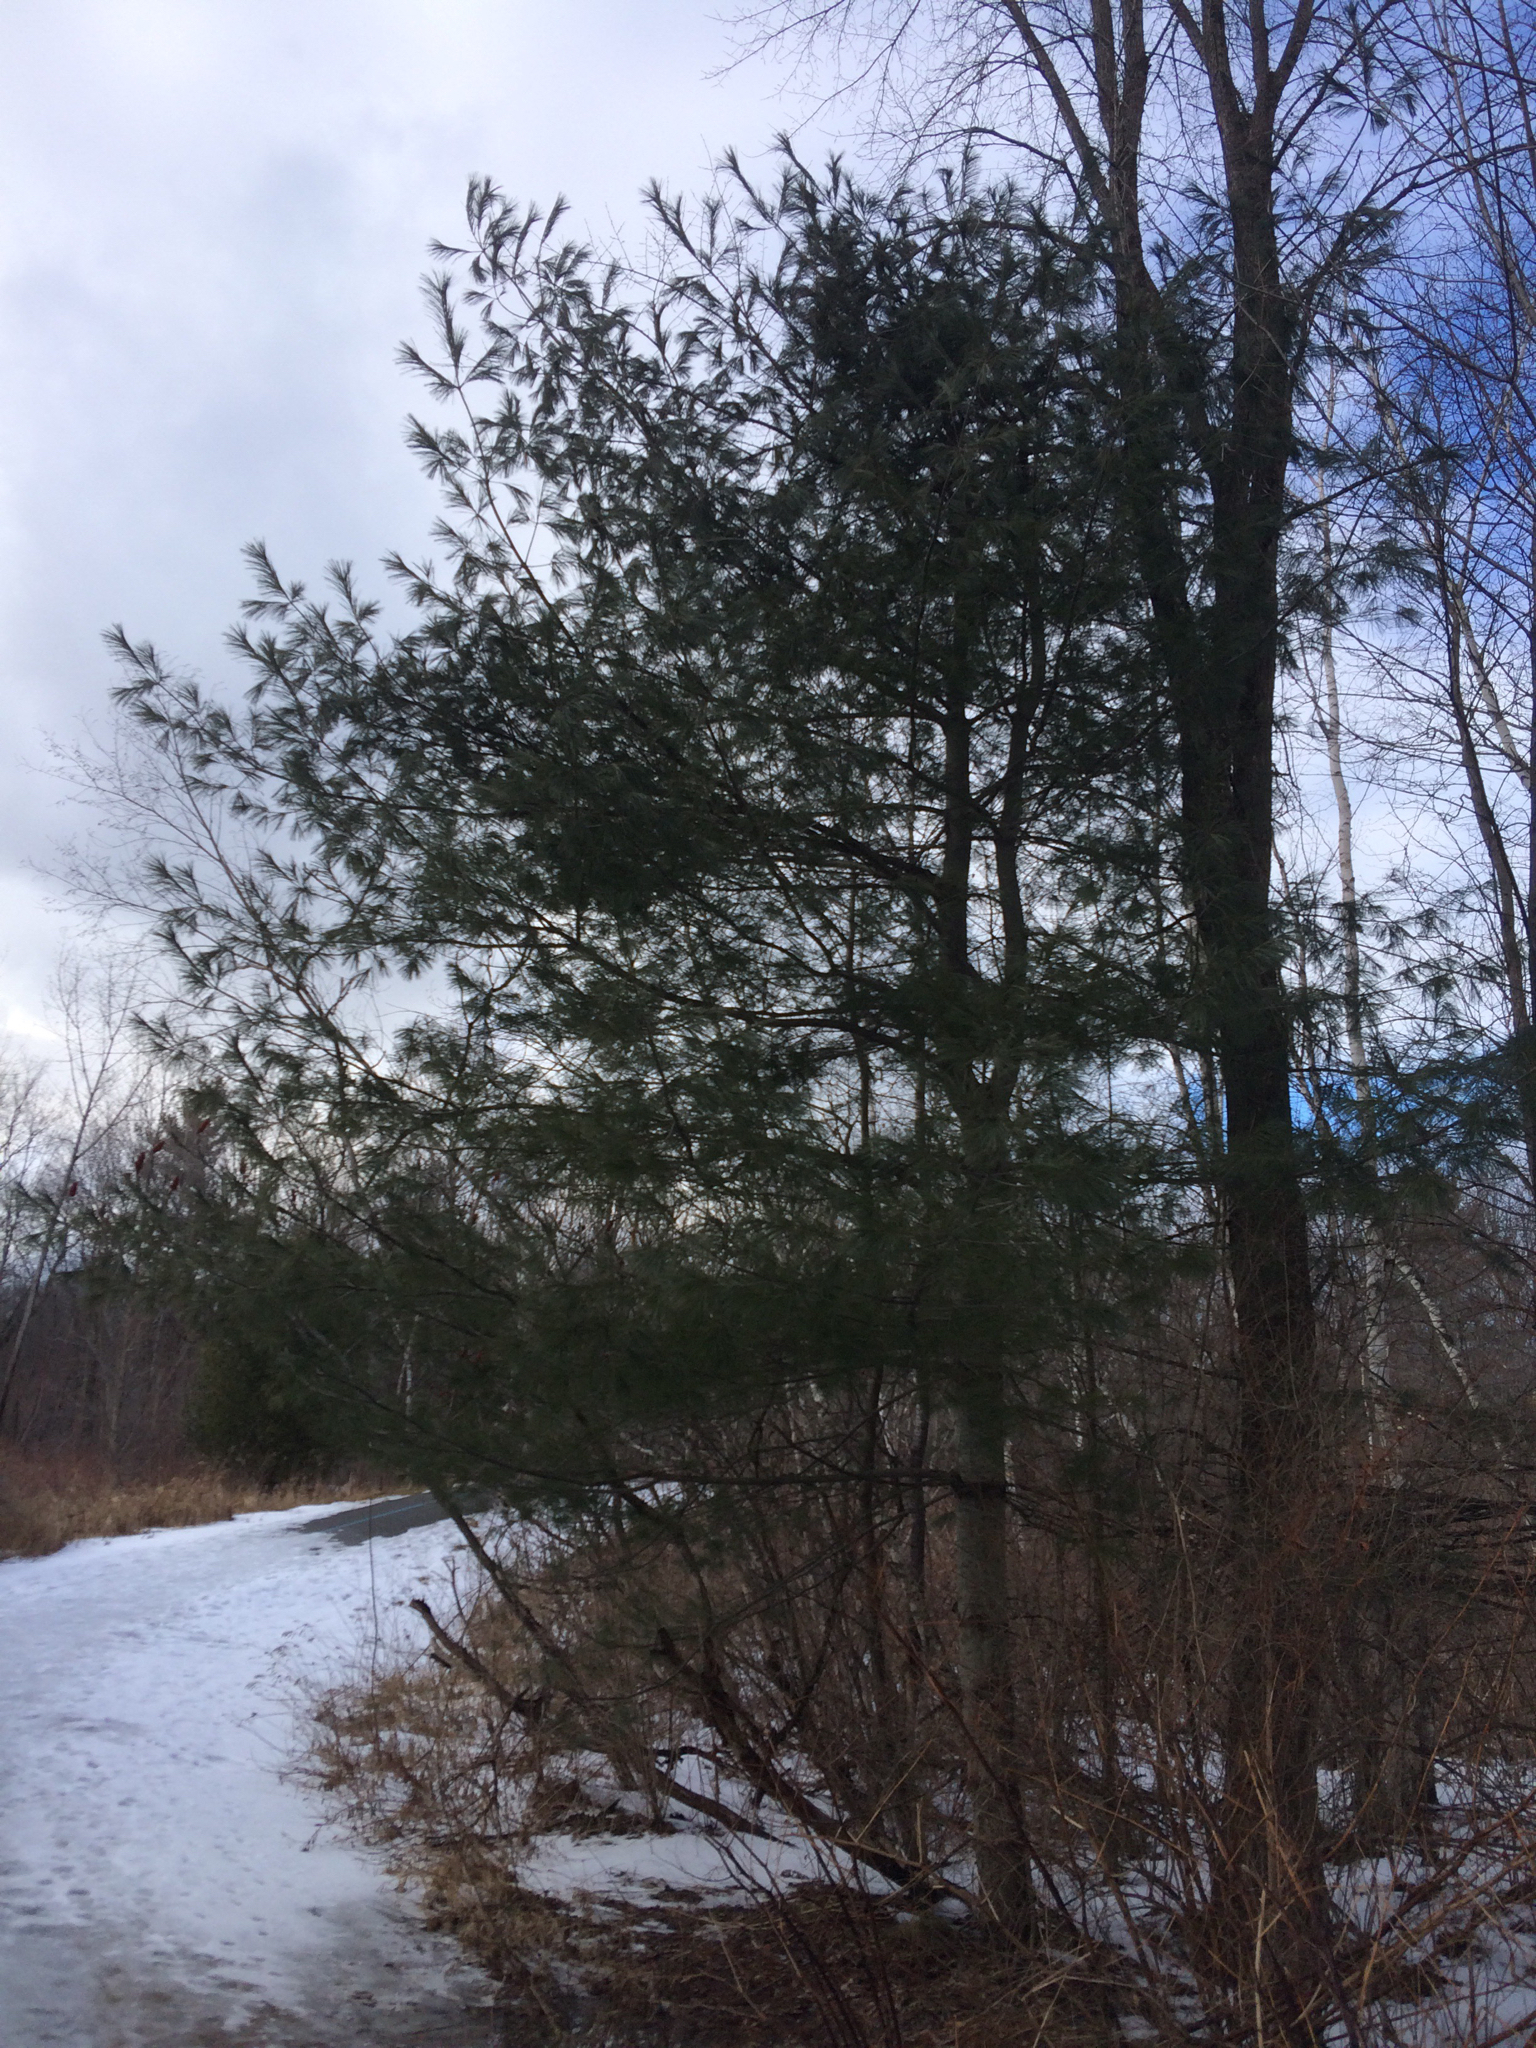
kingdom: Plantae
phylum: Tracheophyta
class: Pinopsida
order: Pinales
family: Pinaceae
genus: Pinus
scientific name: Pinus strobus
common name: Weymouth pine
